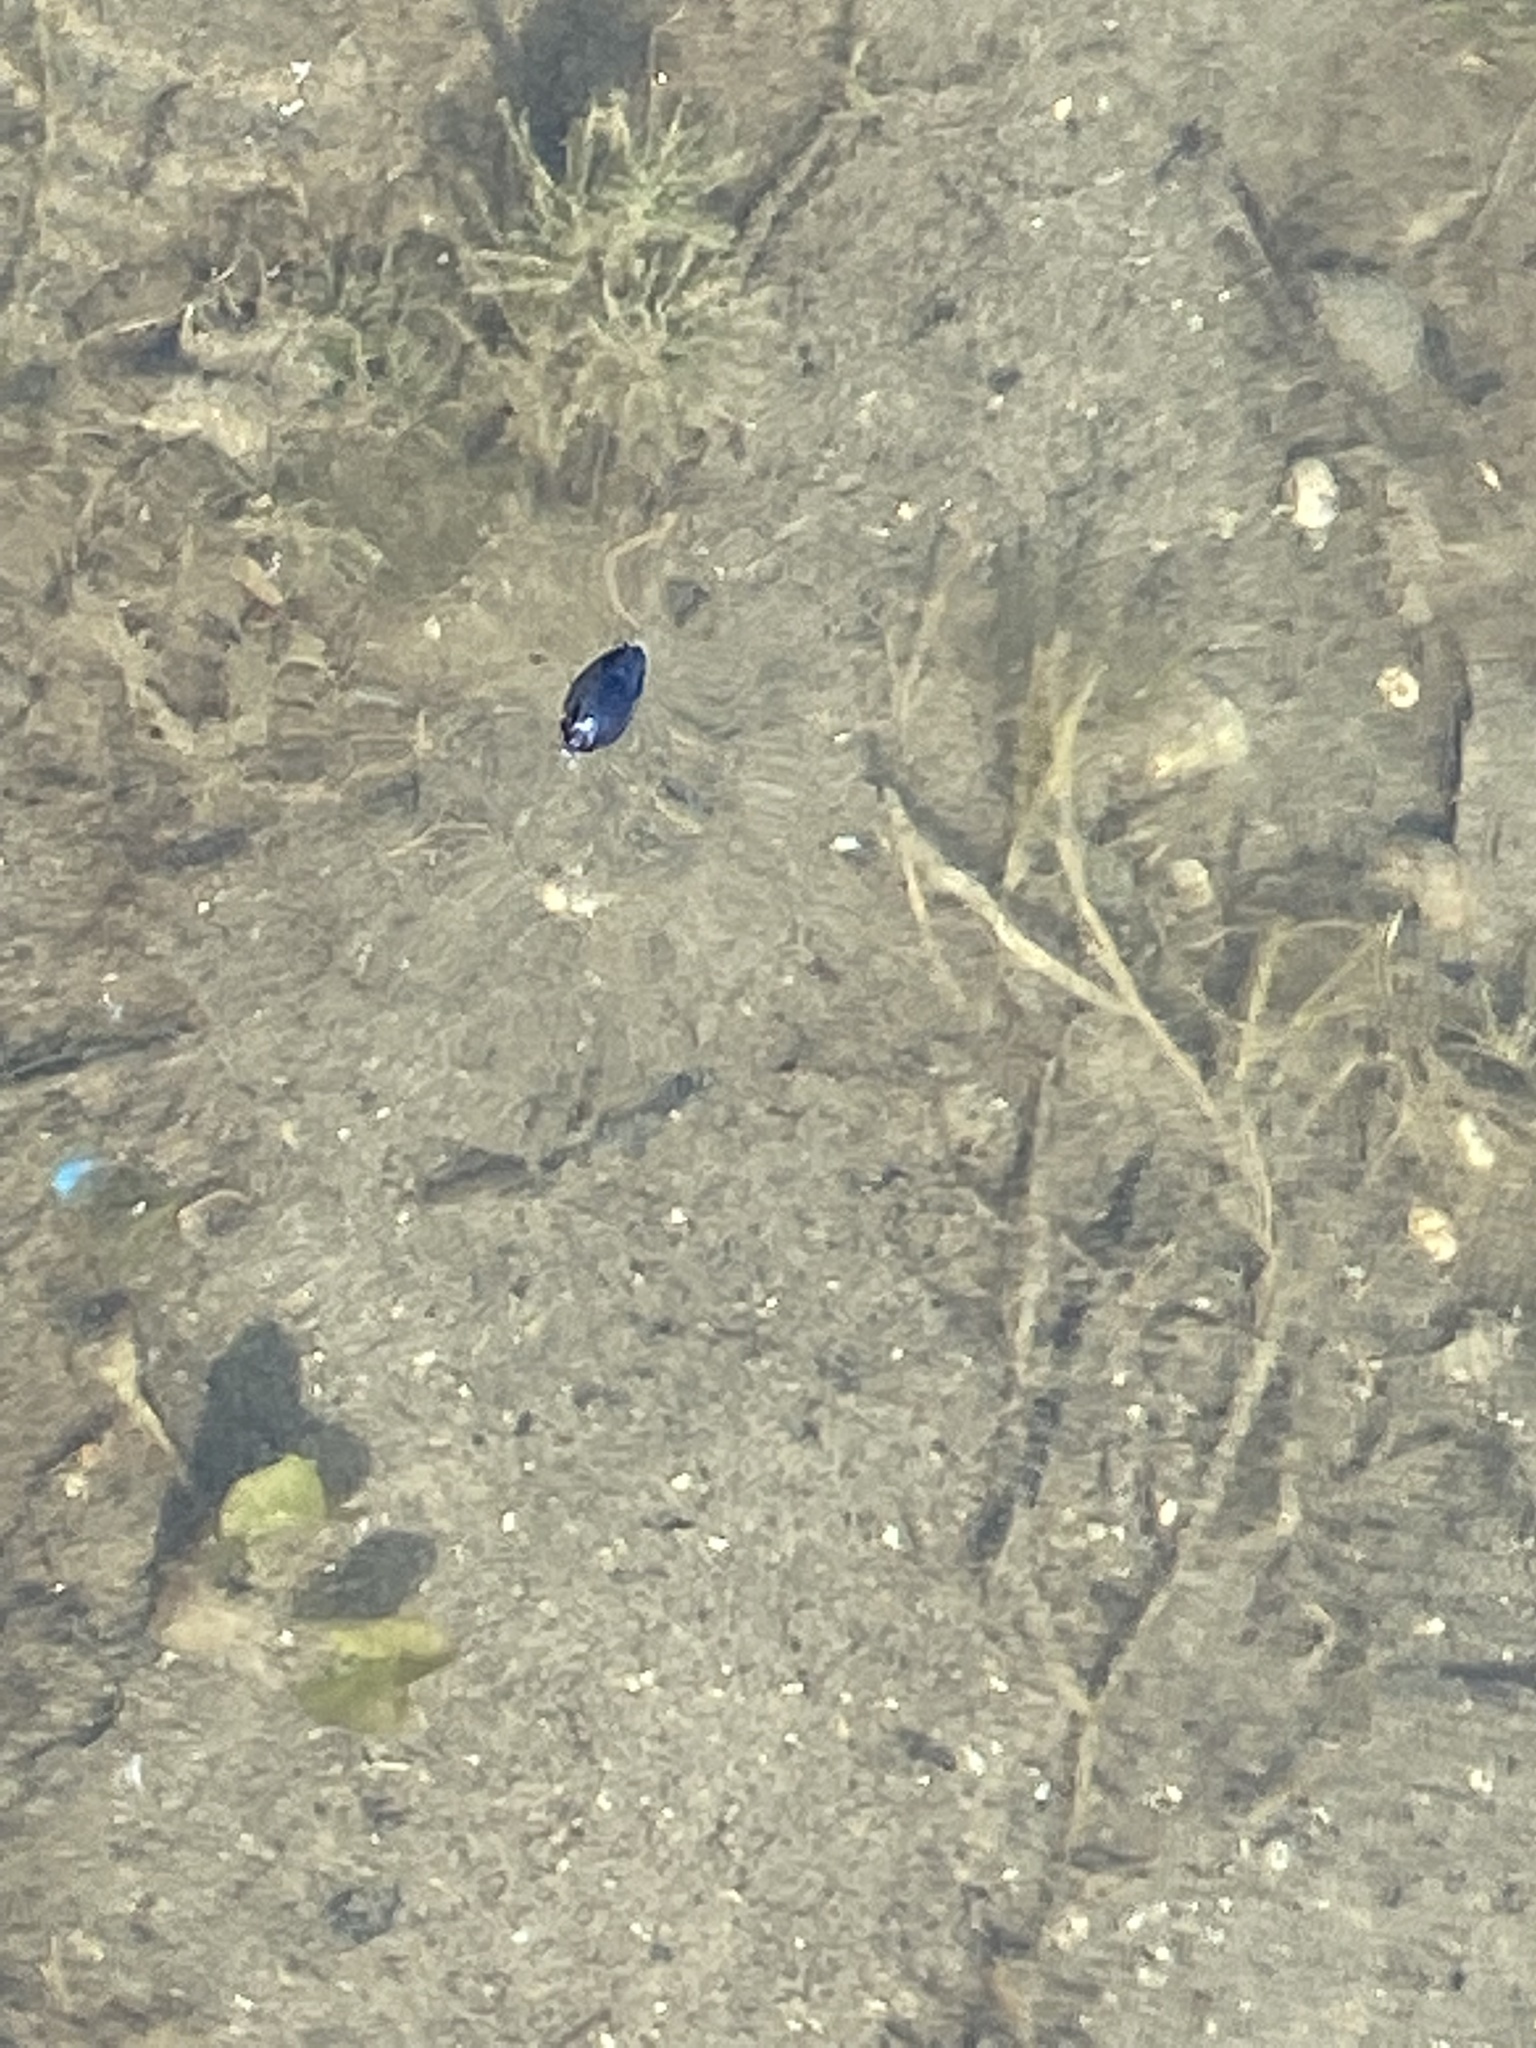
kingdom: Animalia
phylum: Arthropoda
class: Insecta
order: Coleoptera
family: Gyrinidae
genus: Dineutus
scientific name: Dineutus
